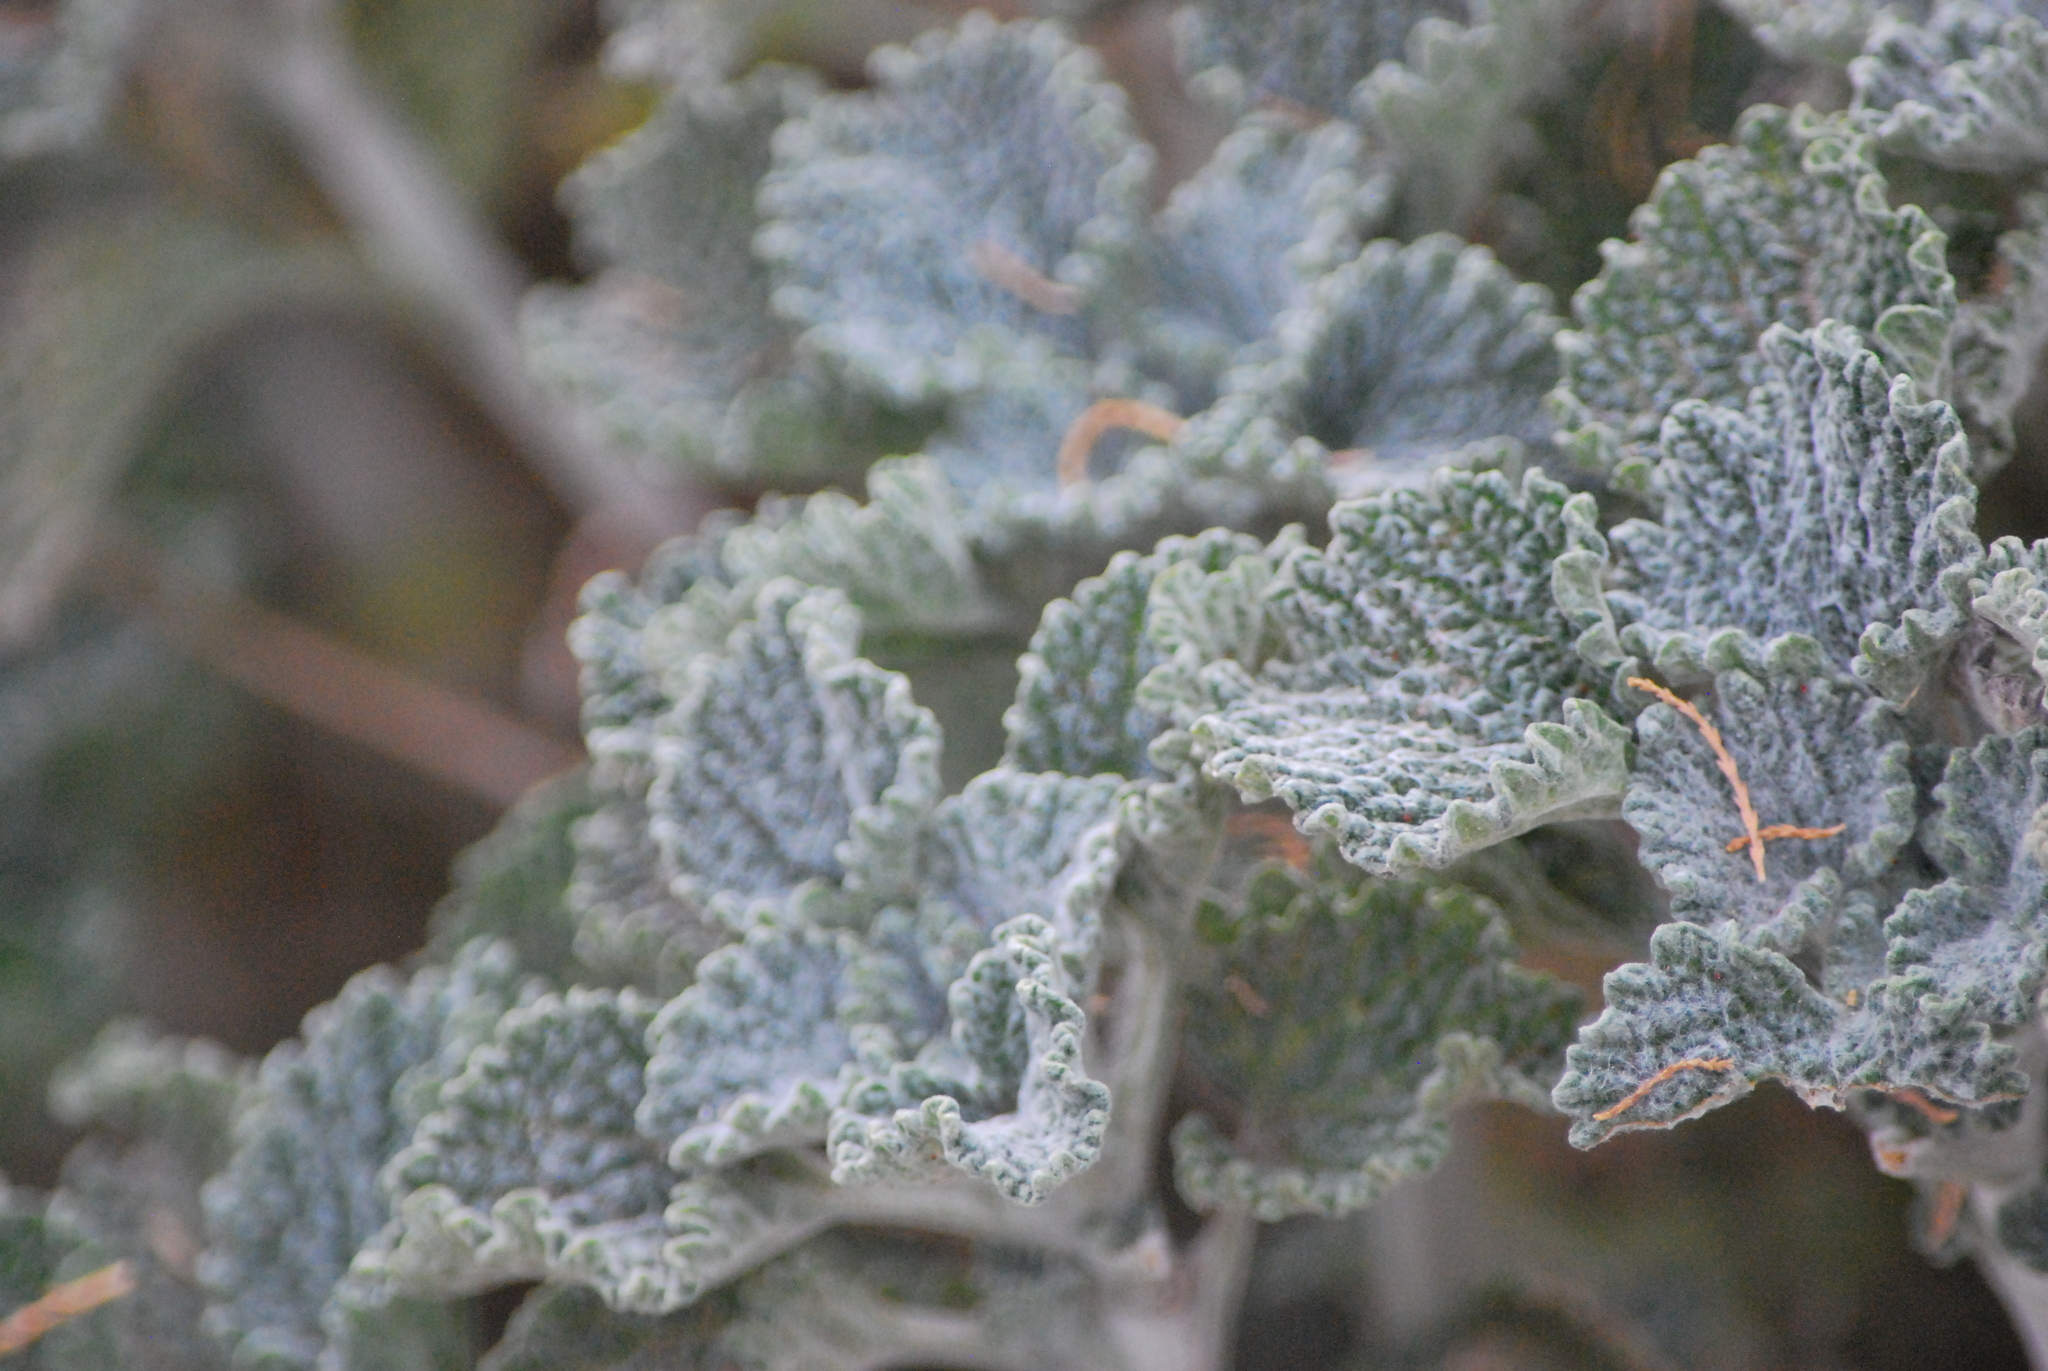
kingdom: Plantae
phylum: Tracheophyta
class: Magnoliopsida
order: Lamiales
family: Lamiaceae
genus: Marrubium
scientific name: Marrubium vulgare
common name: Horehound
